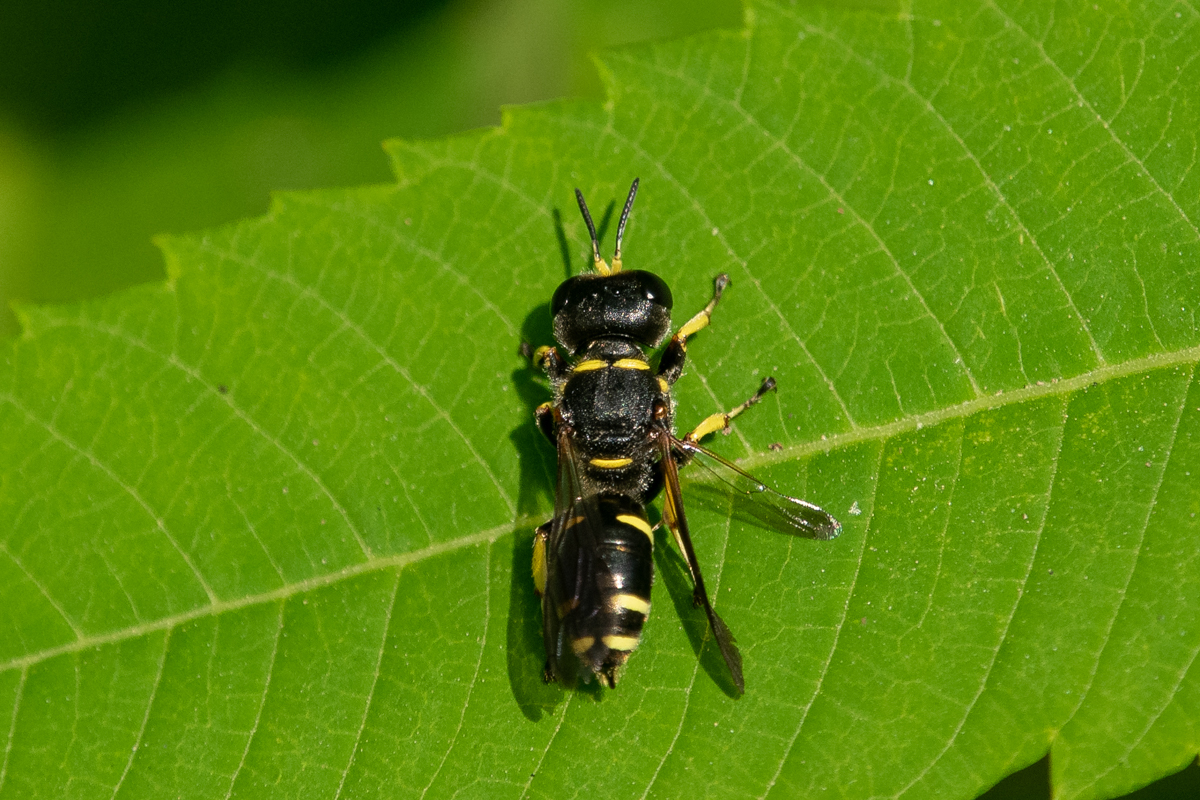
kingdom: Animalia
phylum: Arthropoda
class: Insecta
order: Hymenoptera
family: Crabronidae
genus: Ectemnius
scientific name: Ectemnius continuus
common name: Common ectemnius
